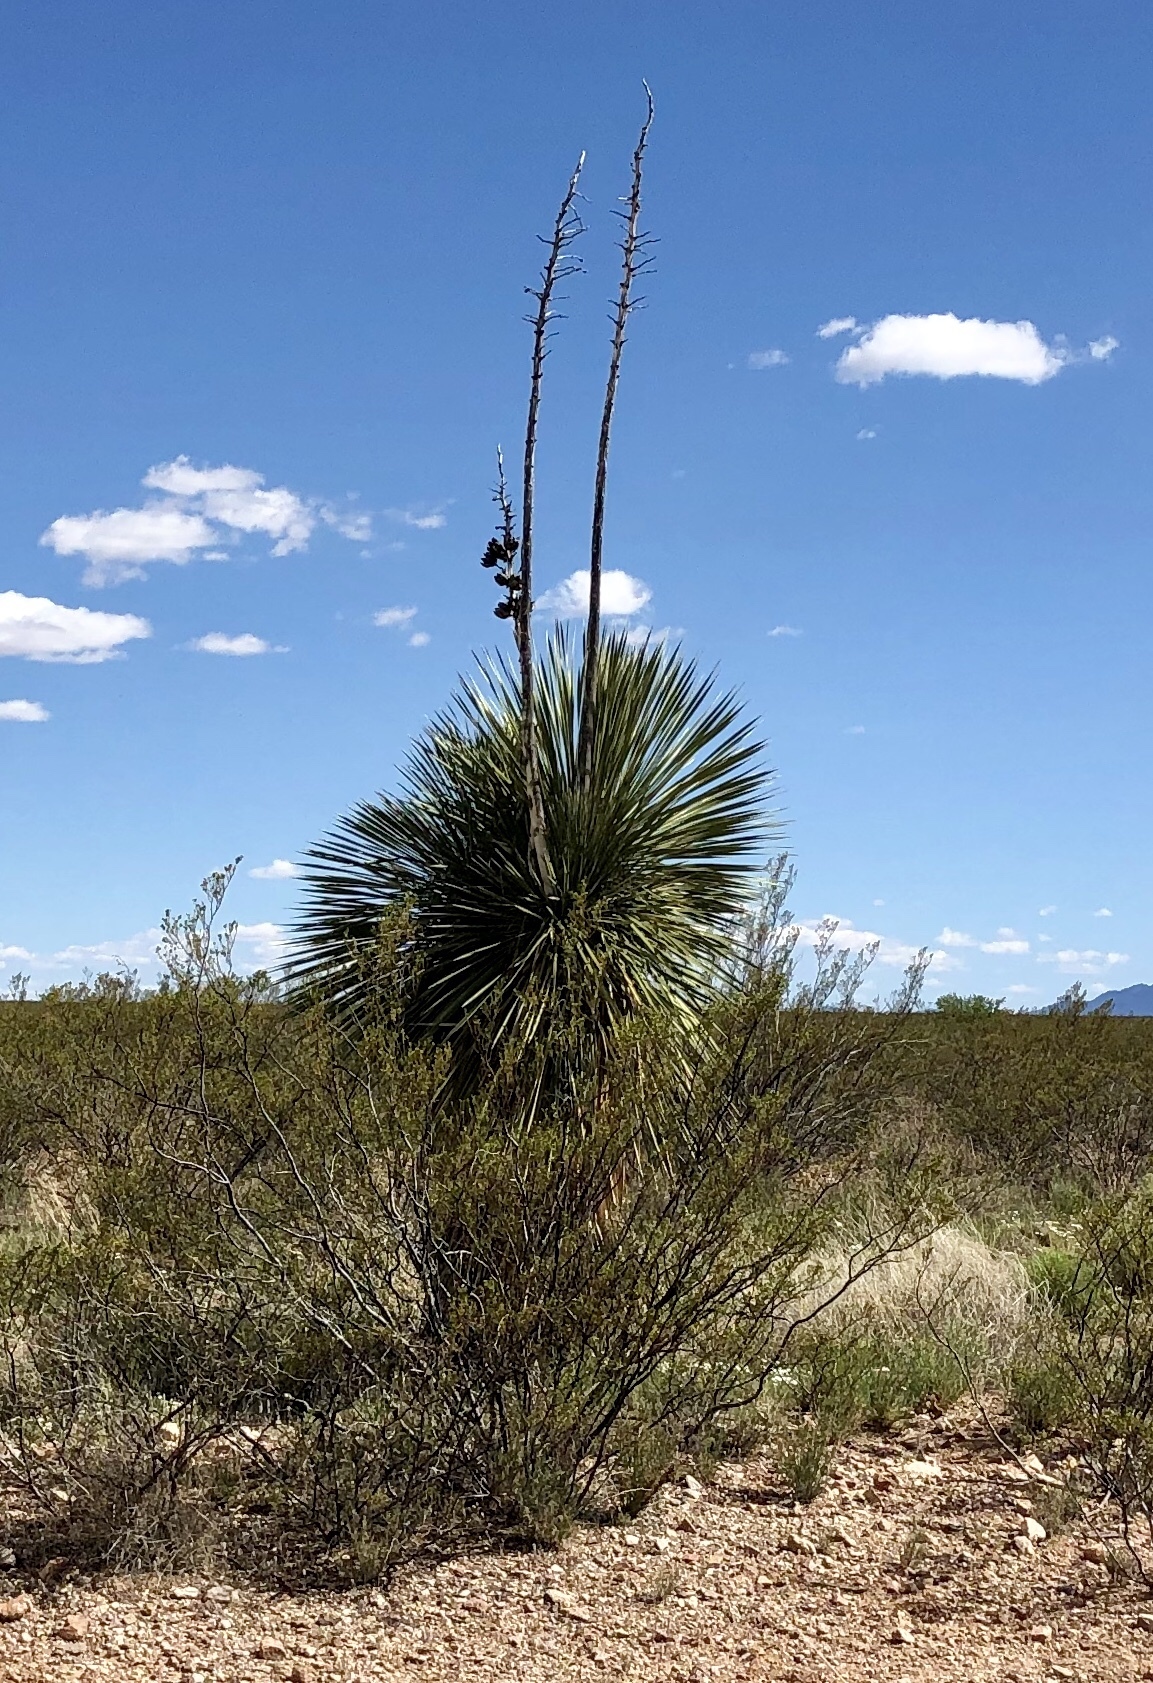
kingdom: Plantae
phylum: Tracheophyta
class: Liliopsida
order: Asparagales
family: Asparagaceae
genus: Yucca
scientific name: Yucca elata
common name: Palmella
